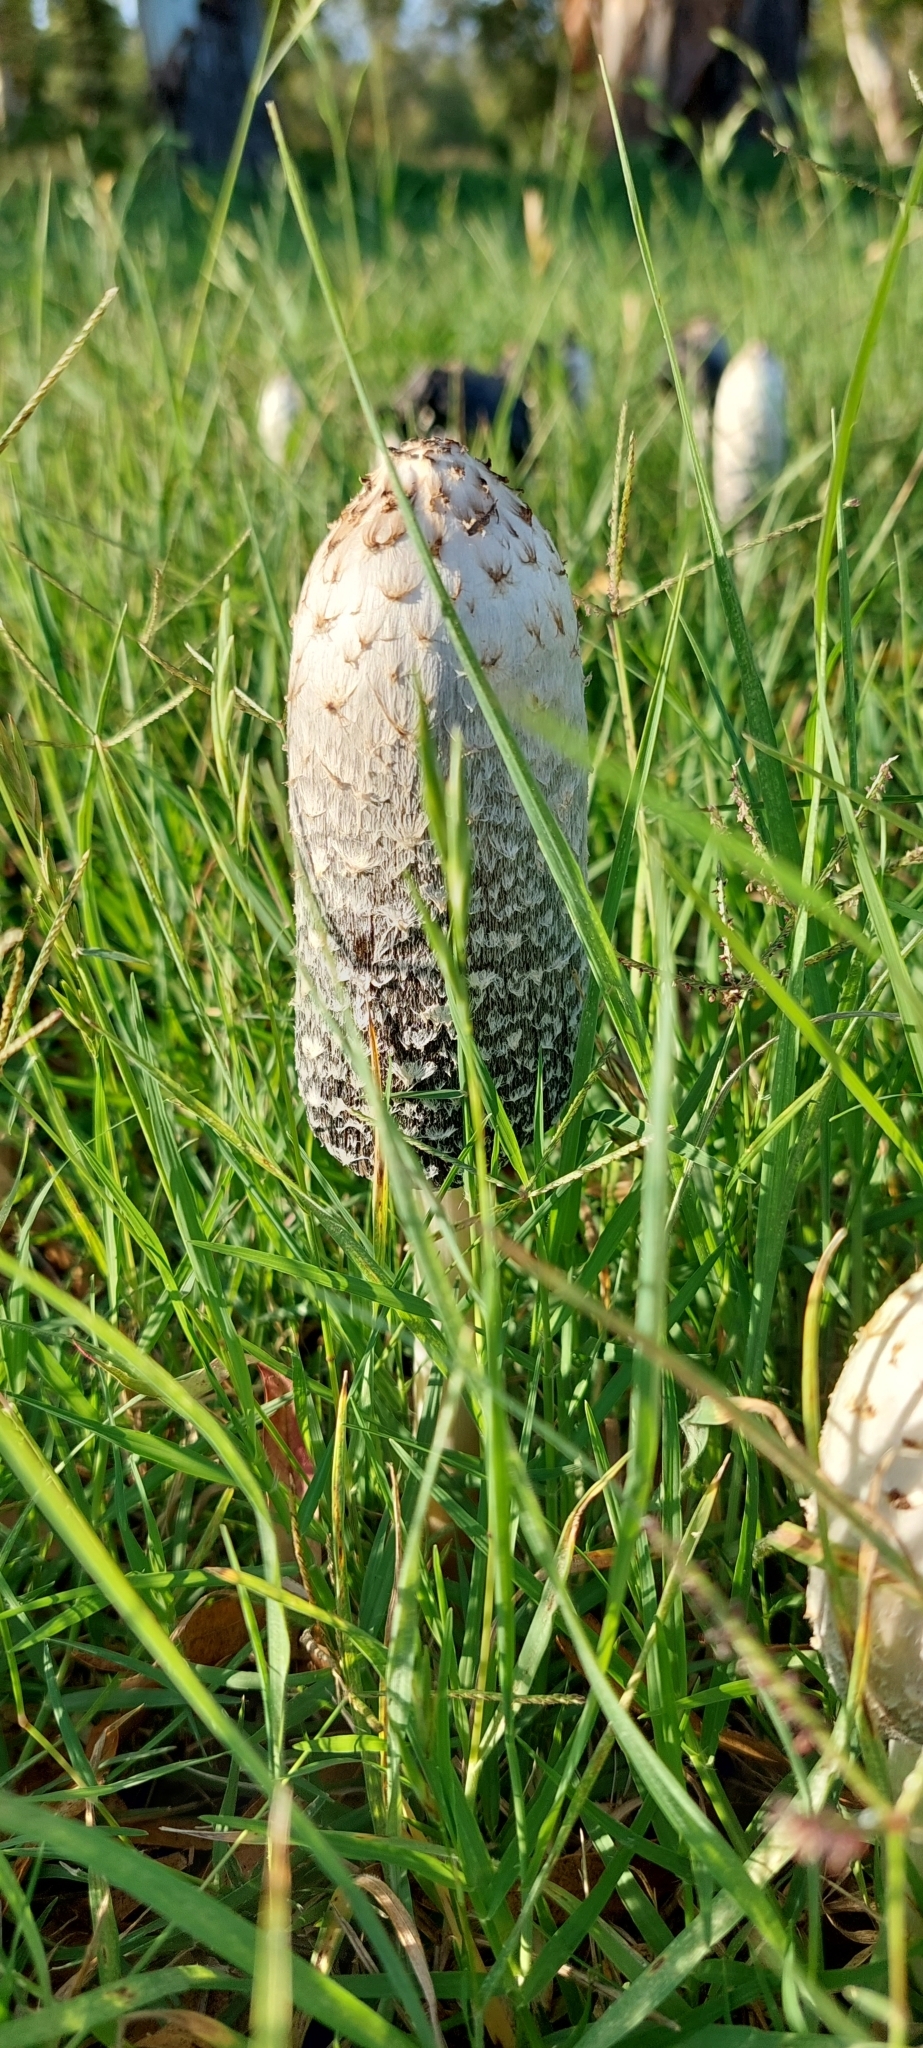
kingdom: Fungi
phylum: Basidiomycota
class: Agaricomycetes
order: Agaricales
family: Agaricaceae
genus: Coprinus
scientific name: Coprinus comatus
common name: Lawyer's wig
